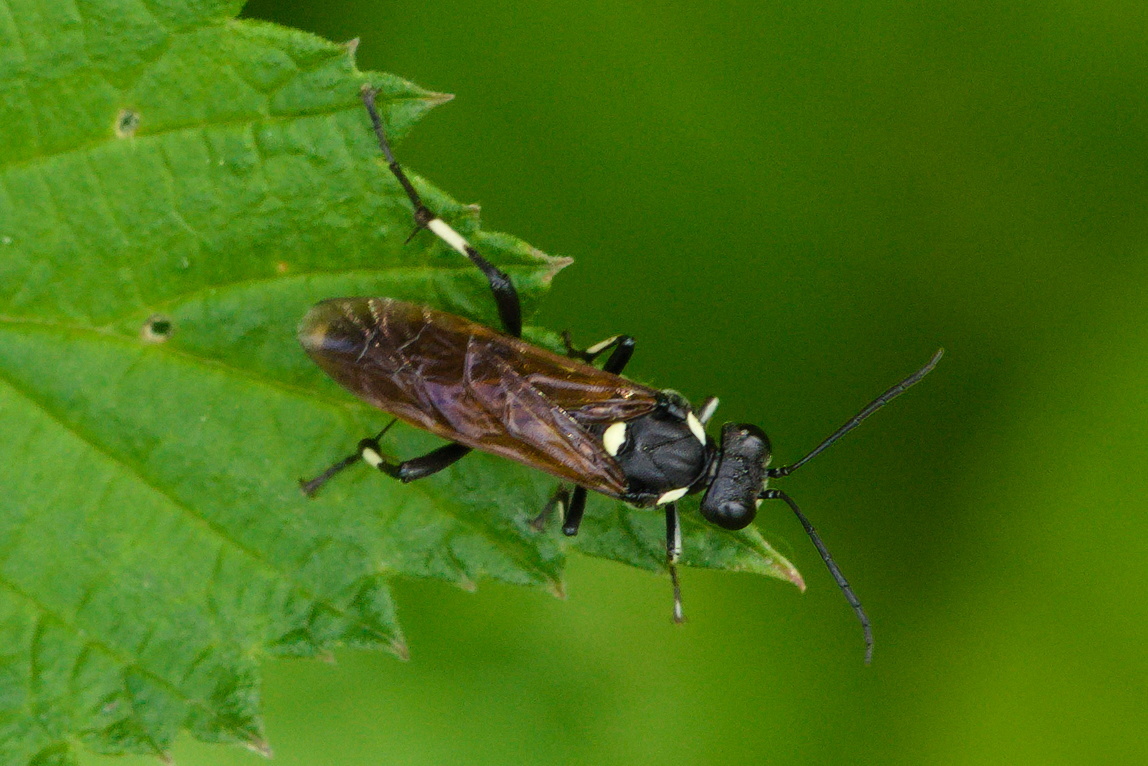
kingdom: Animalia
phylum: Arthropoda
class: Insecta
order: Hymenoptera
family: Tenthredinidae
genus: Macrophya
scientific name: Macrophya duodecimpunctata
